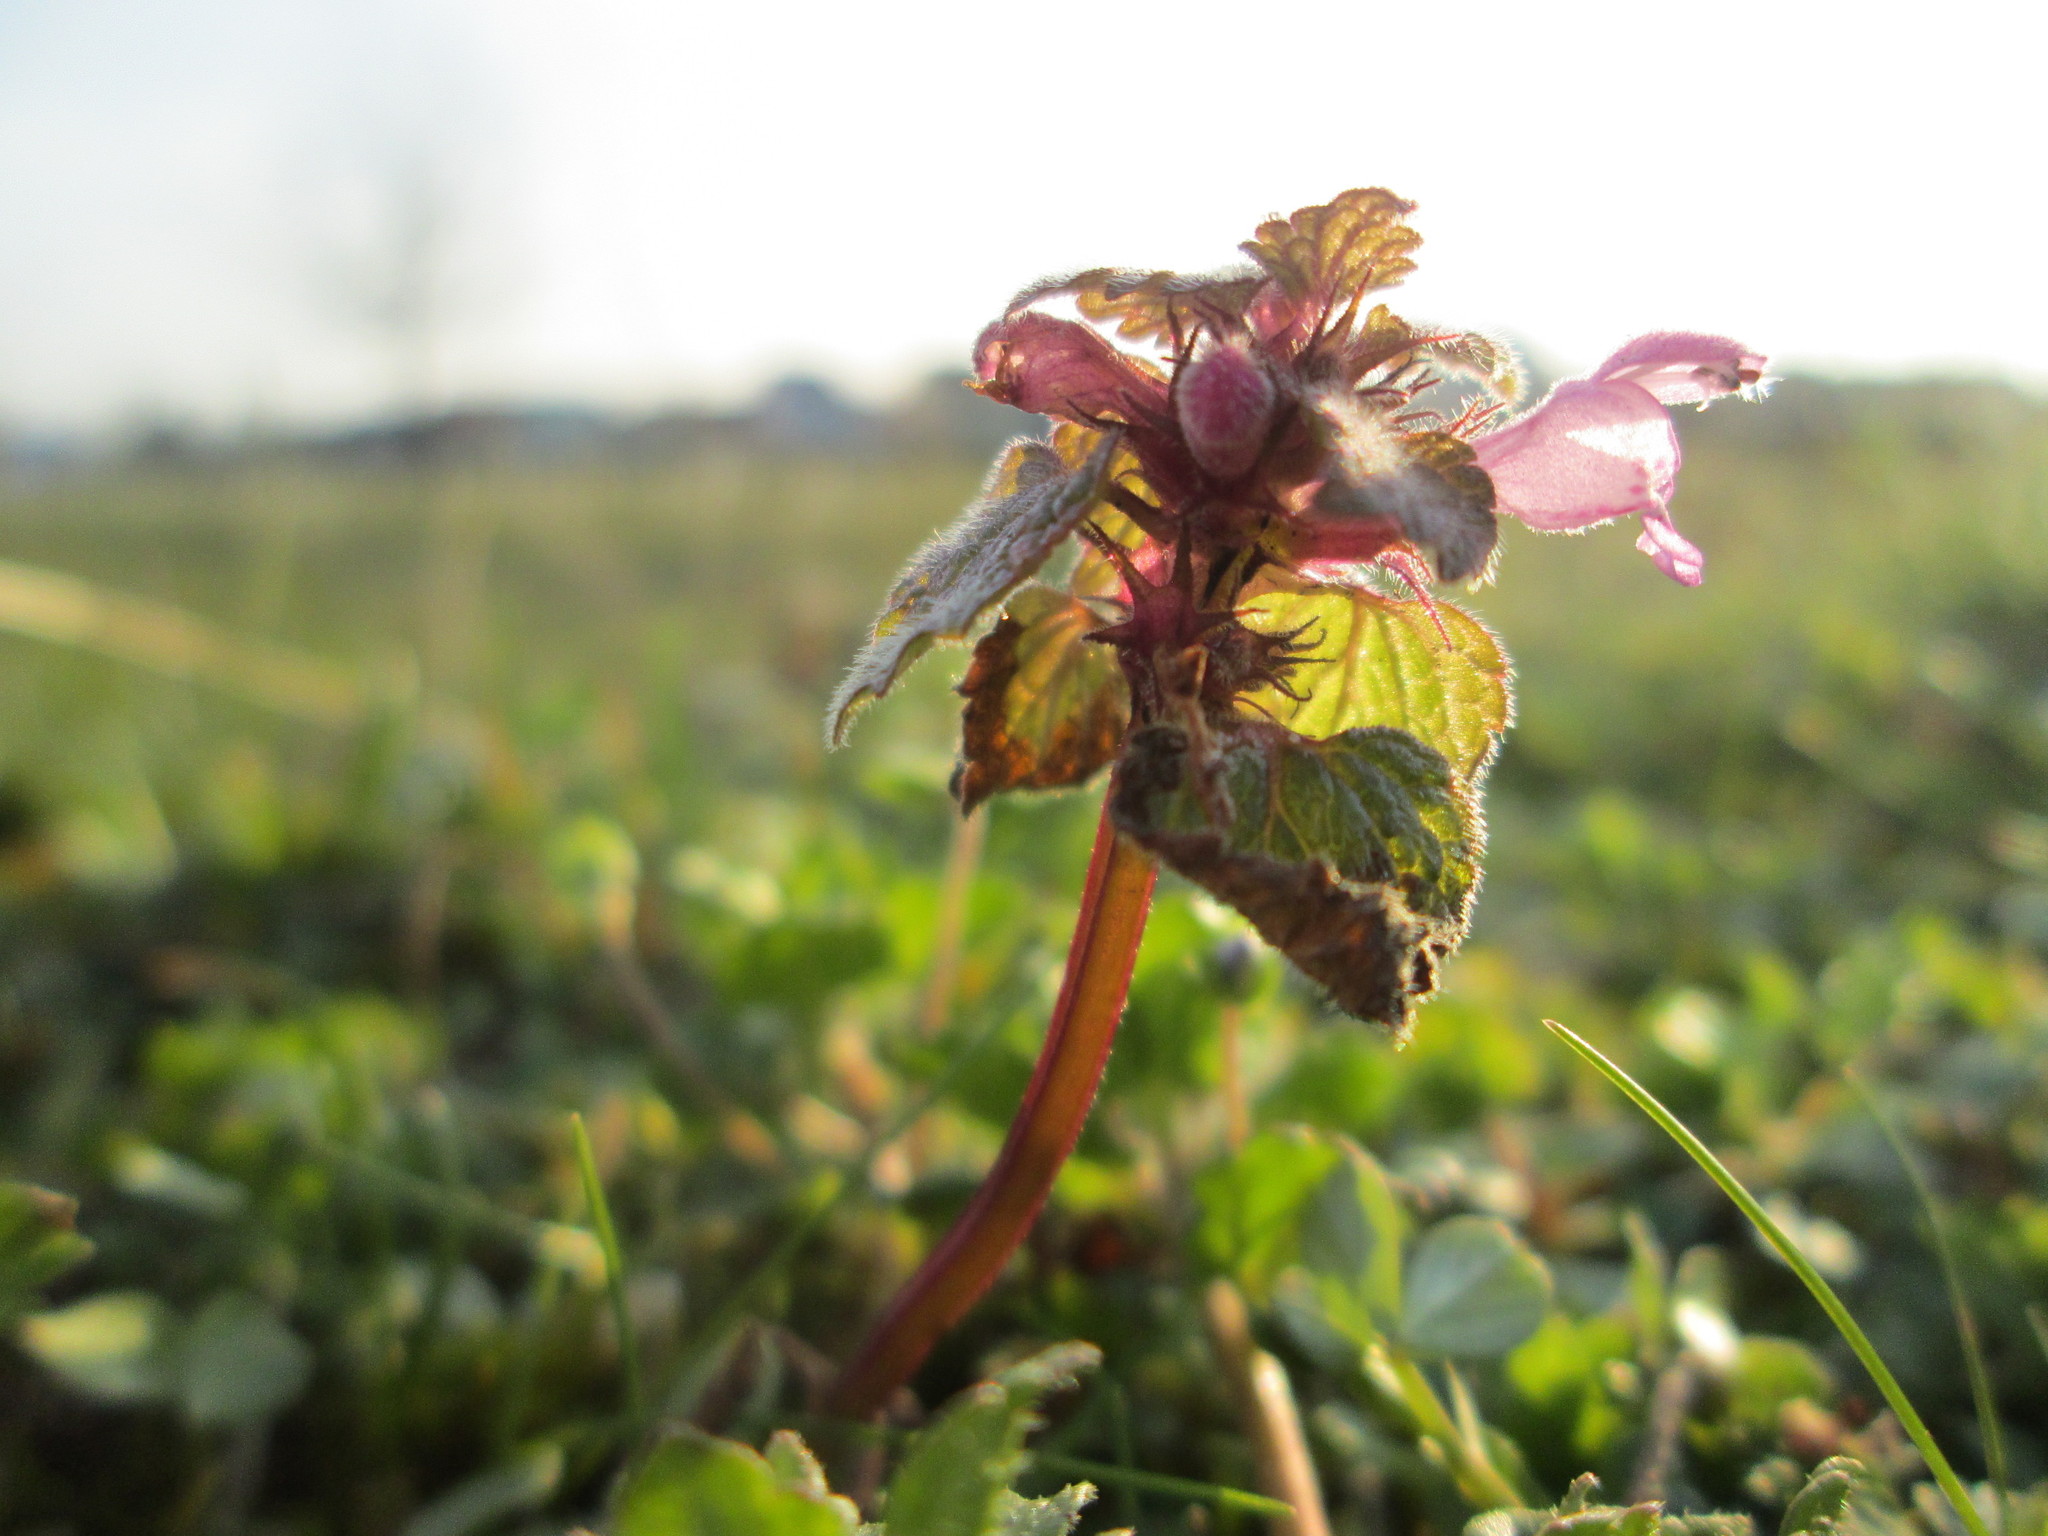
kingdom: Plantae
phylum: Tracheophyta
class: Magnoliopsida
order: Lamiales
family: Lamiaceae
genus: Lamium
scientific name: Lamium purpureum
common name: Red dead-nettle
